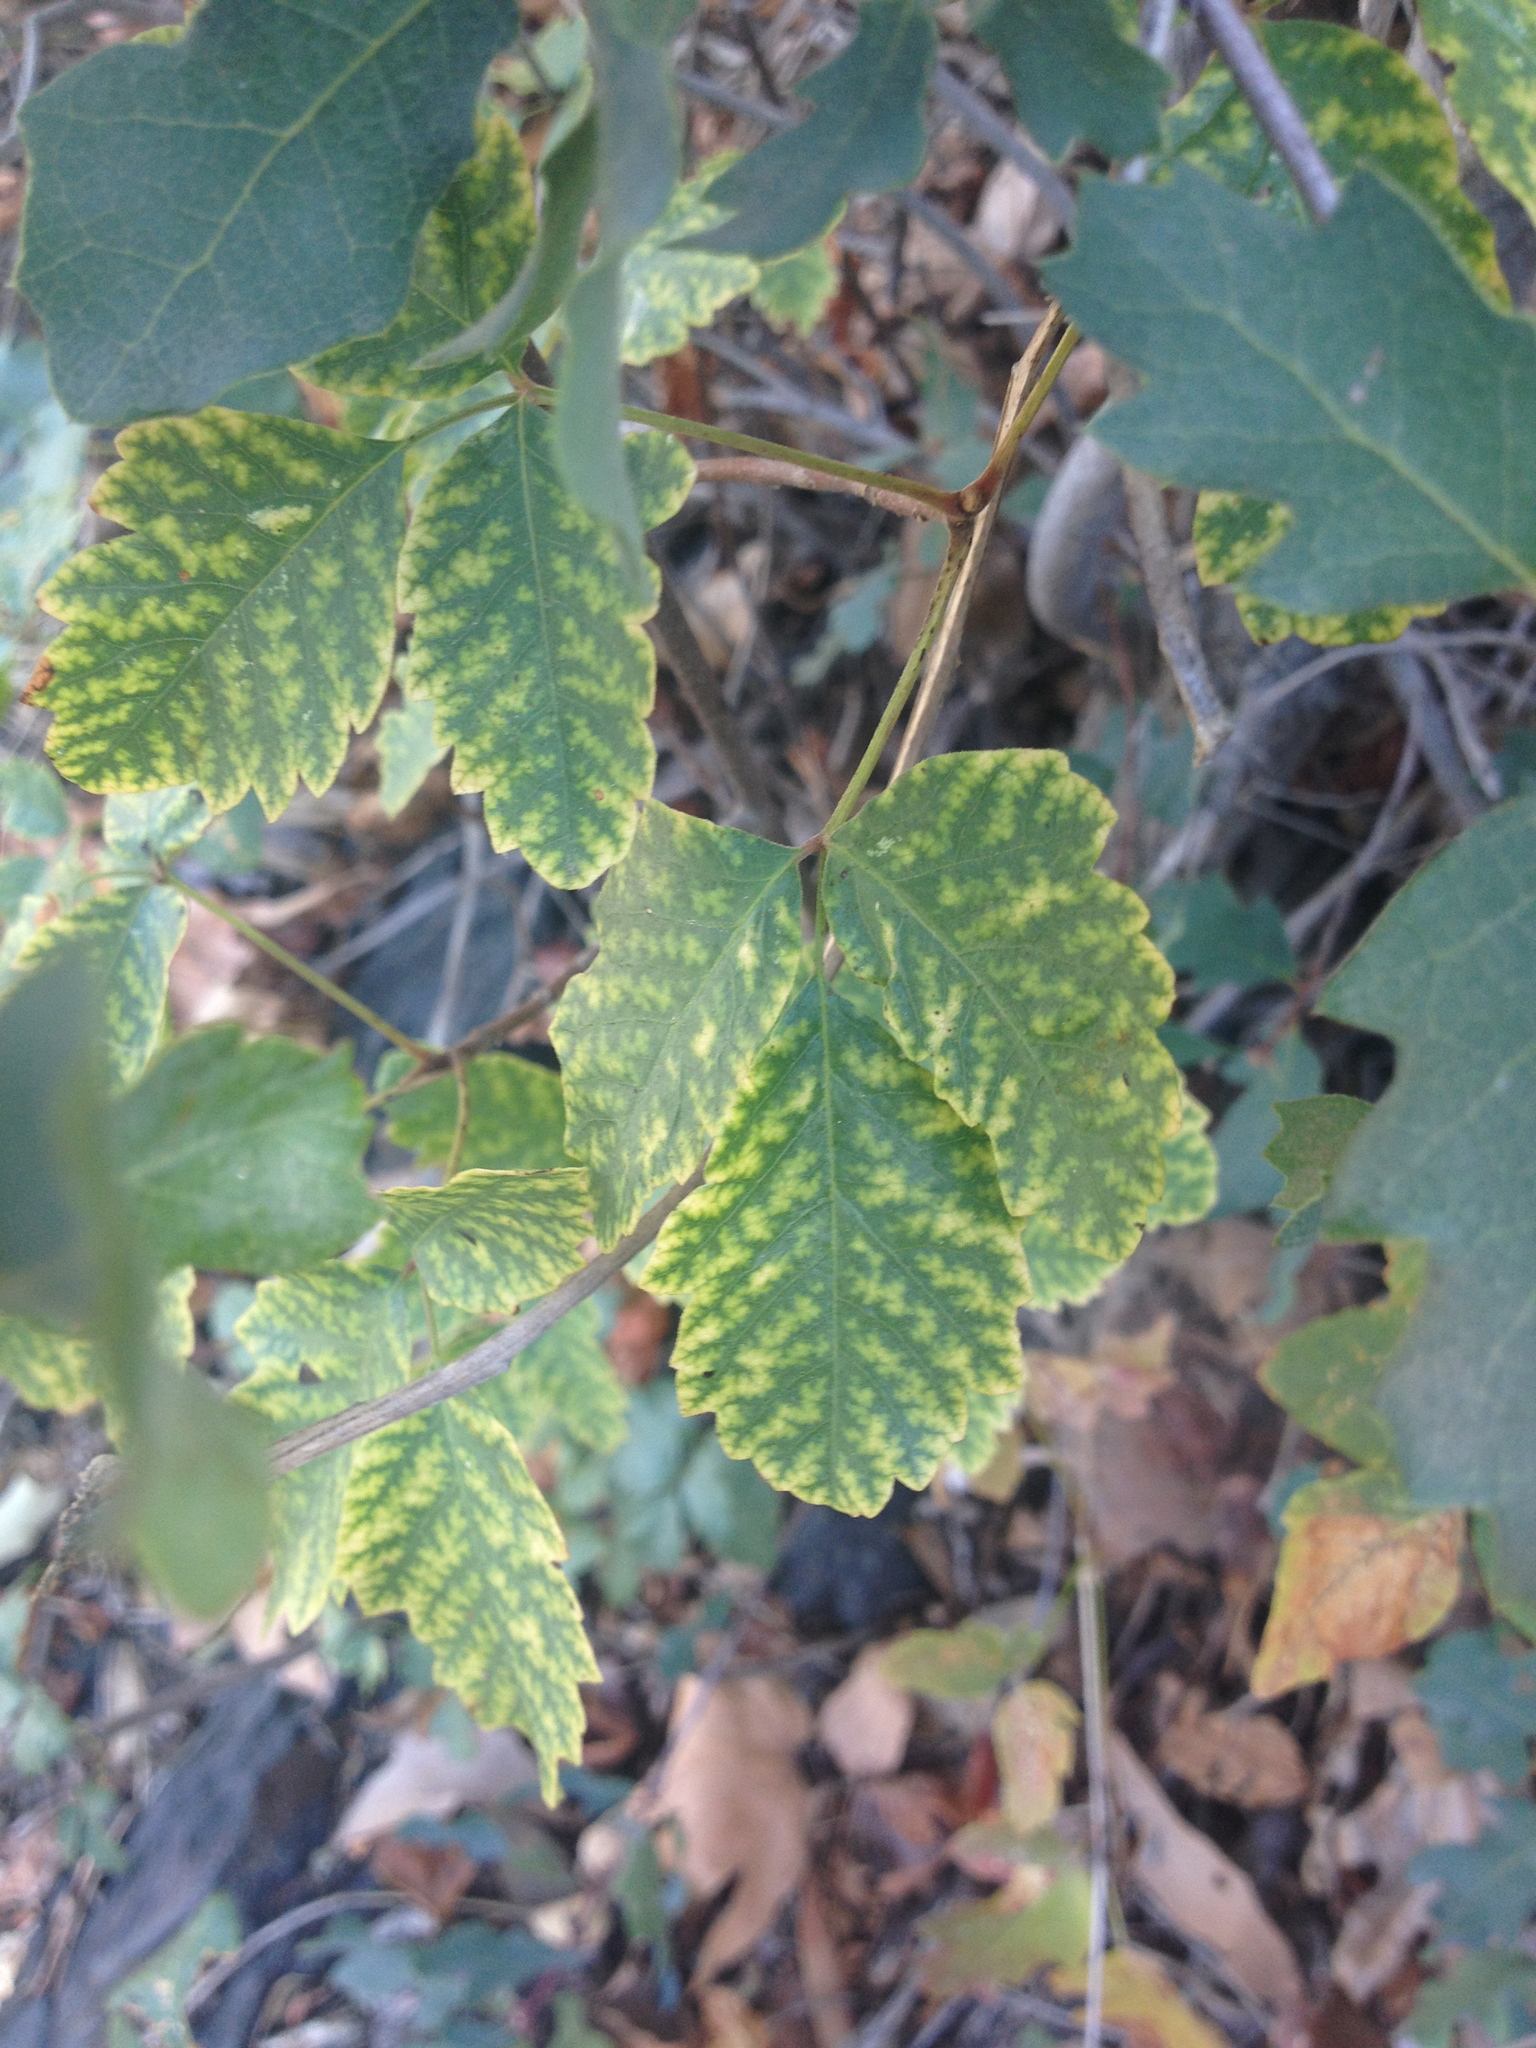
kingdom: Plantae
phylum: Tracheophyta
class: Magnoliopsida
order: Sapindales
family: Anacardiaceae
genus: Toxicodendron
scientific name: Toxicodendron diversilobum
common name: Pacific poison-oak
